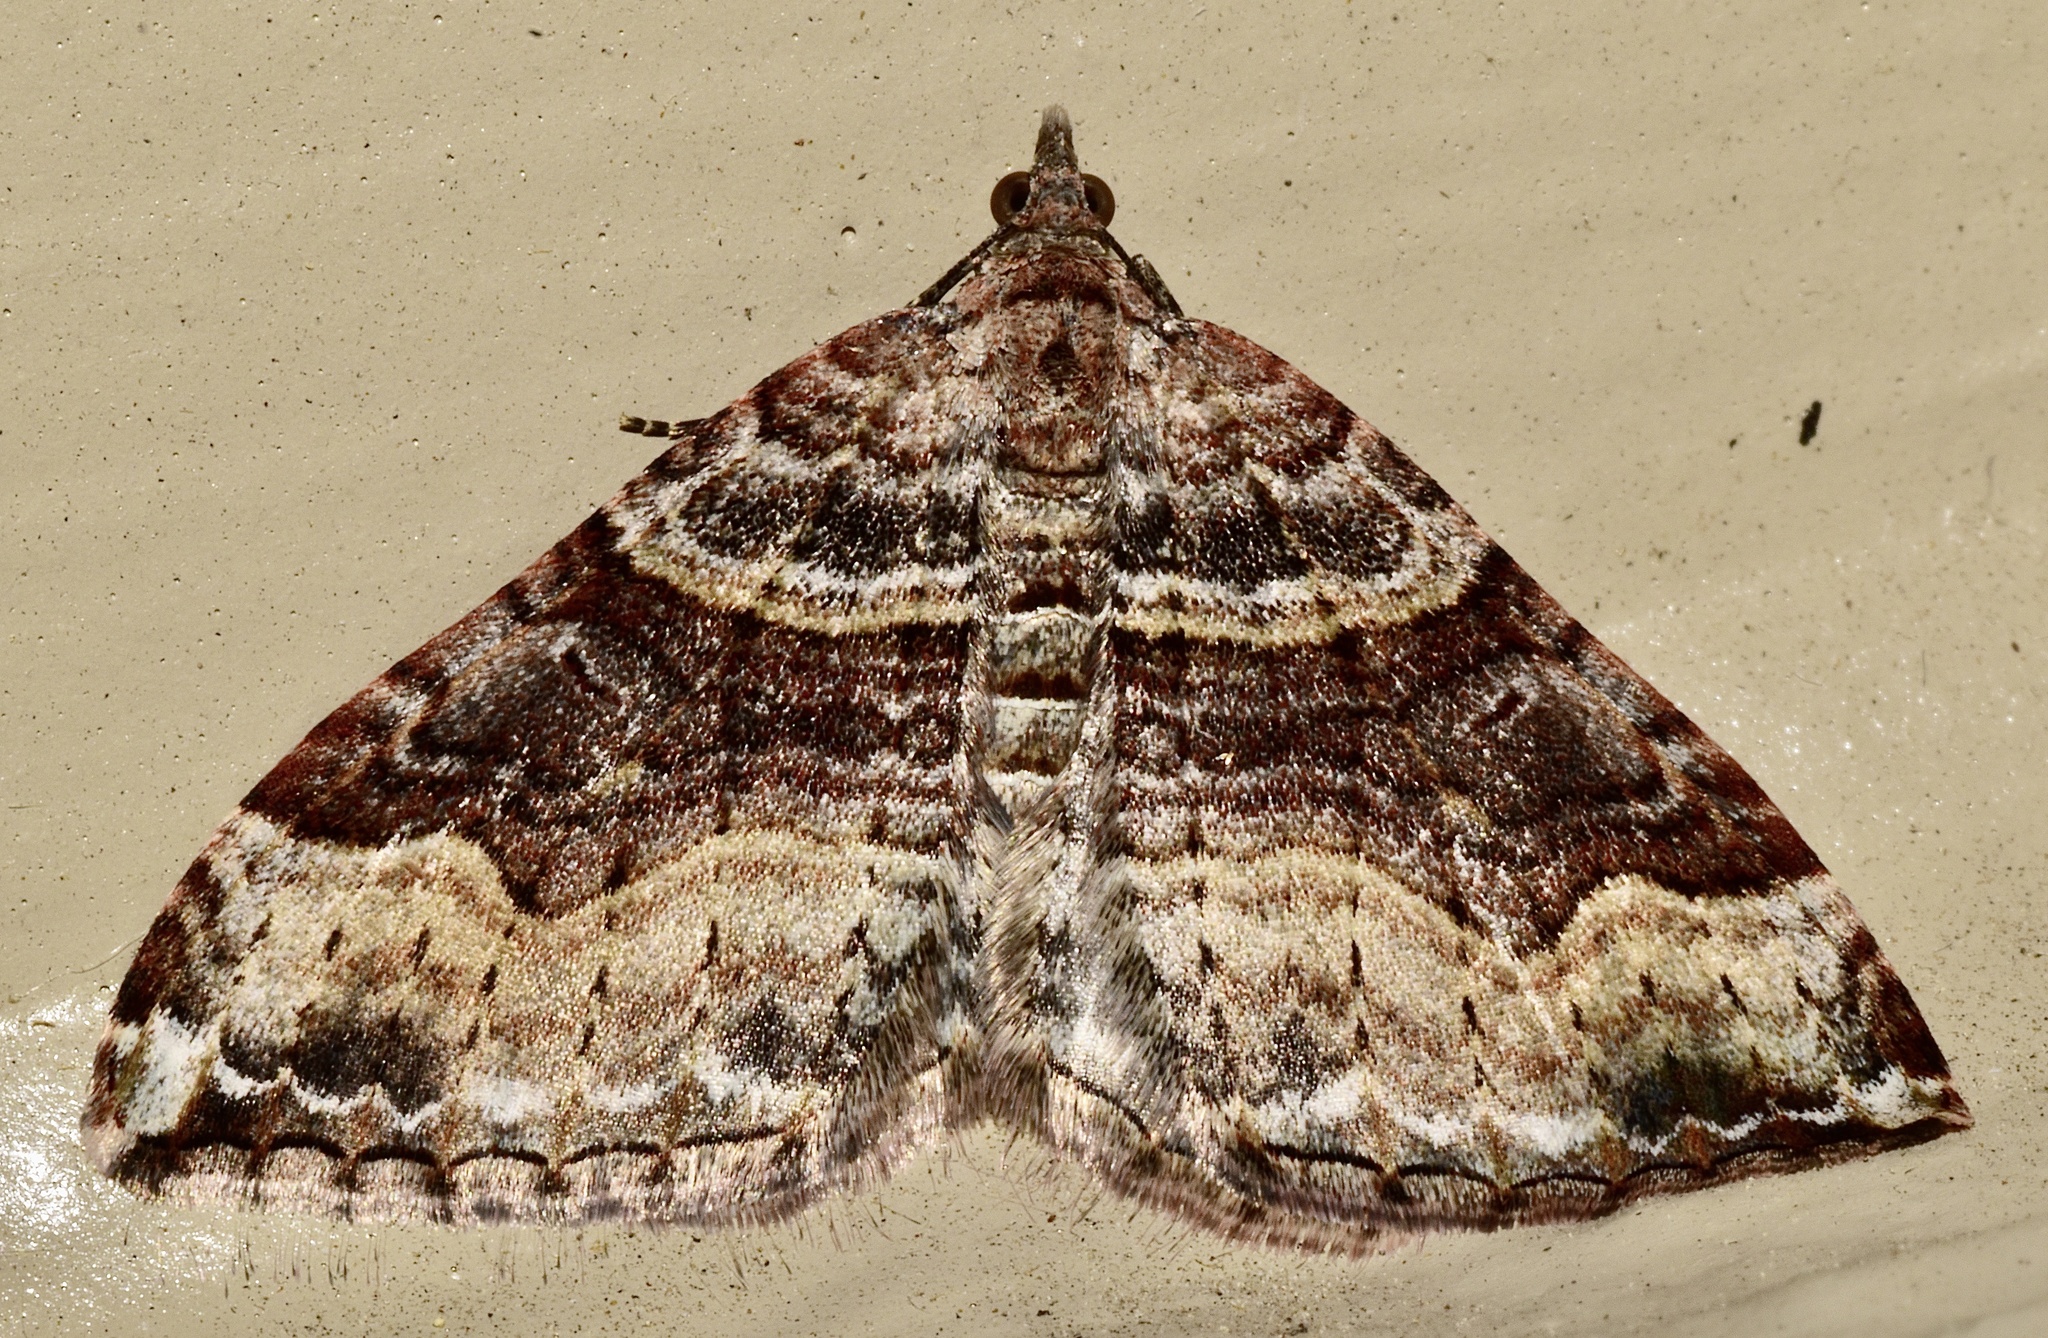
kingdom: Animalia
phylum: Arthropoda
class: Insecta
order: Lepidoptera
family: Geometridae
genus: Xanthorhoe
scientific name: Xanthorhoe defensaria
